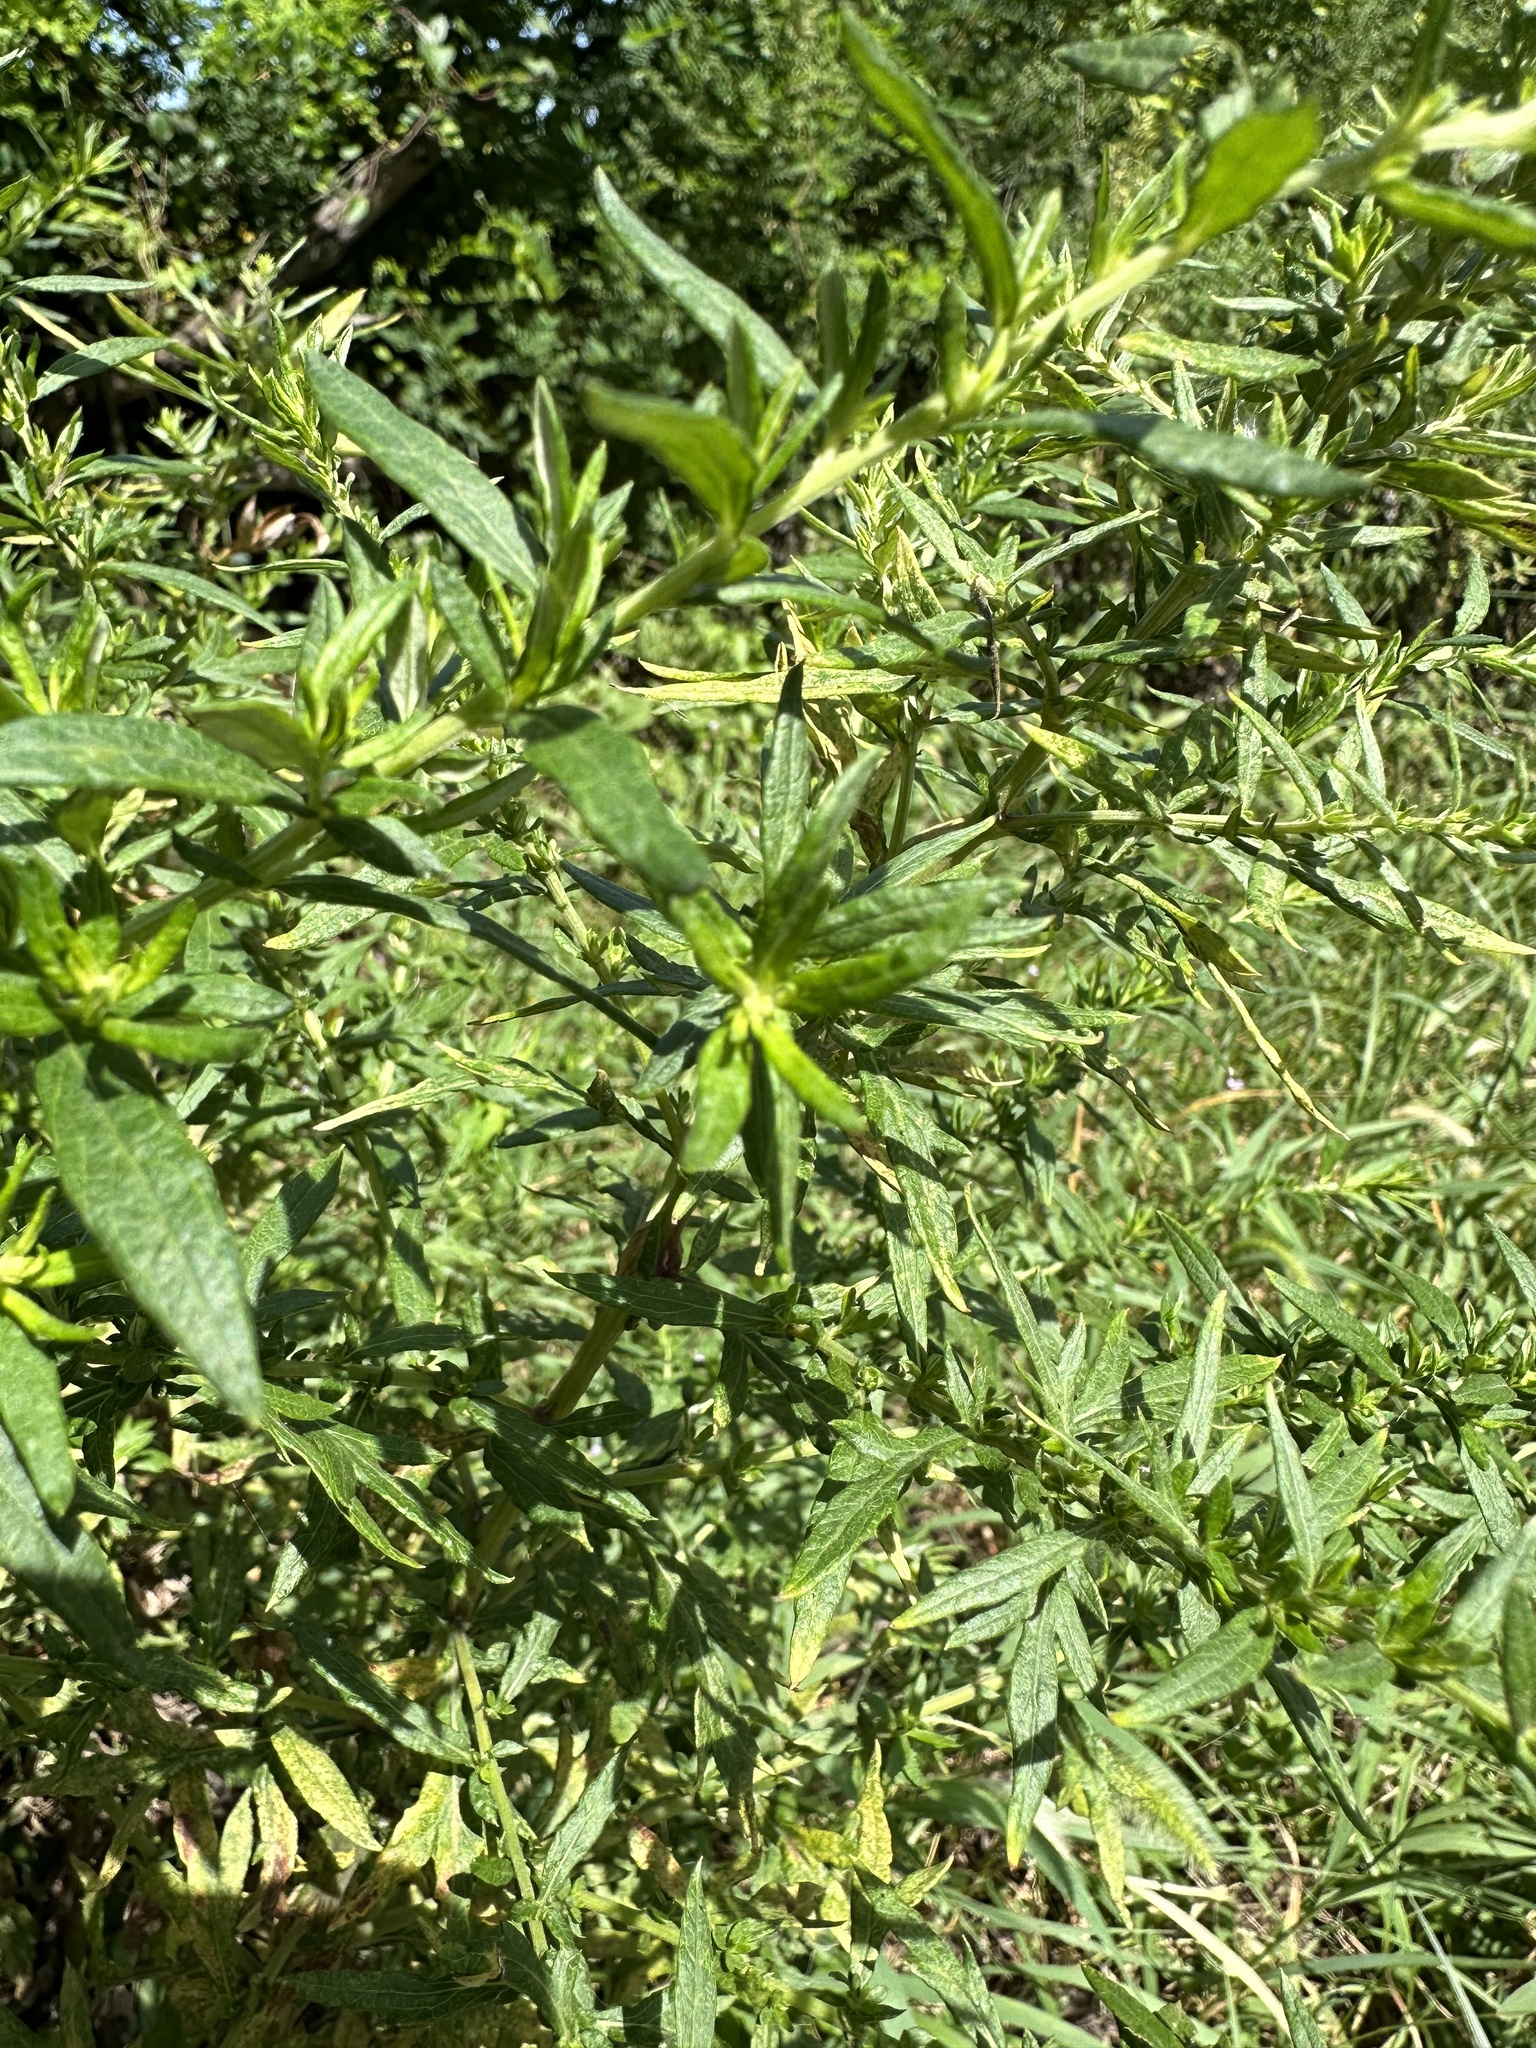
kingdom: Plantae
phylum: Tracheophyta
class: Magnoliopsida
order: Asterales
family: Asteraceae
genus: Artemisia
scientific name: Artemisia vulgaris
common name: Mugwort
